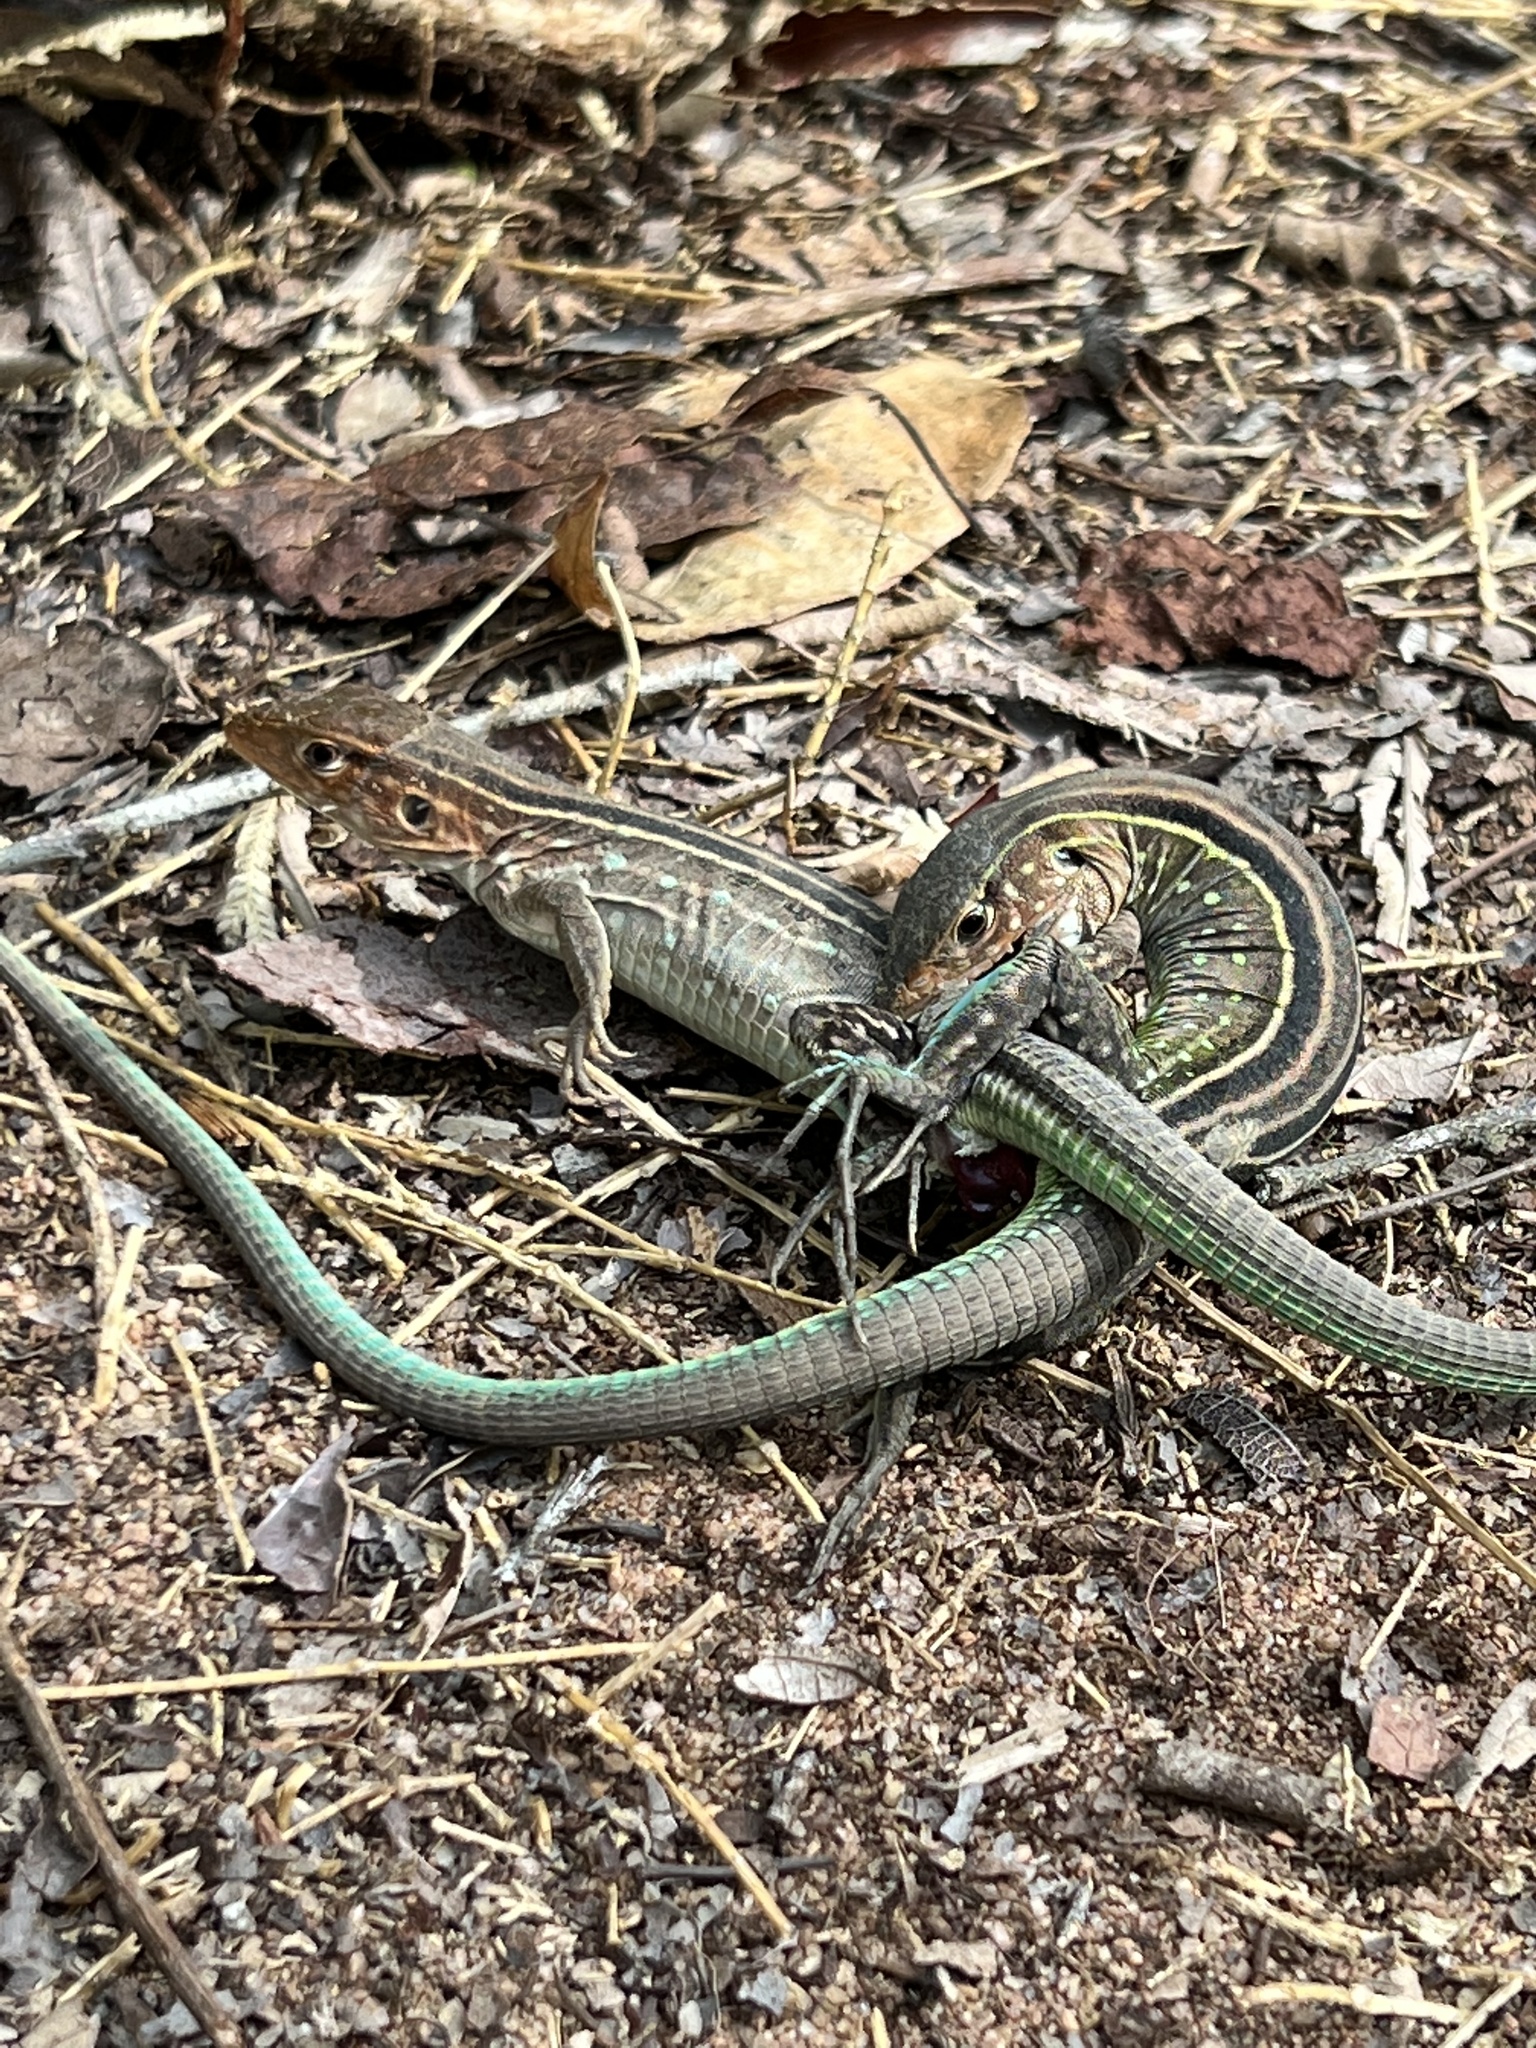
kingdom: Animalia
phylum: Chordata
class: Squamata
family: Teiidae
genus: Cnemidophorus
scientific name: Cnemidophorus gramivagus
